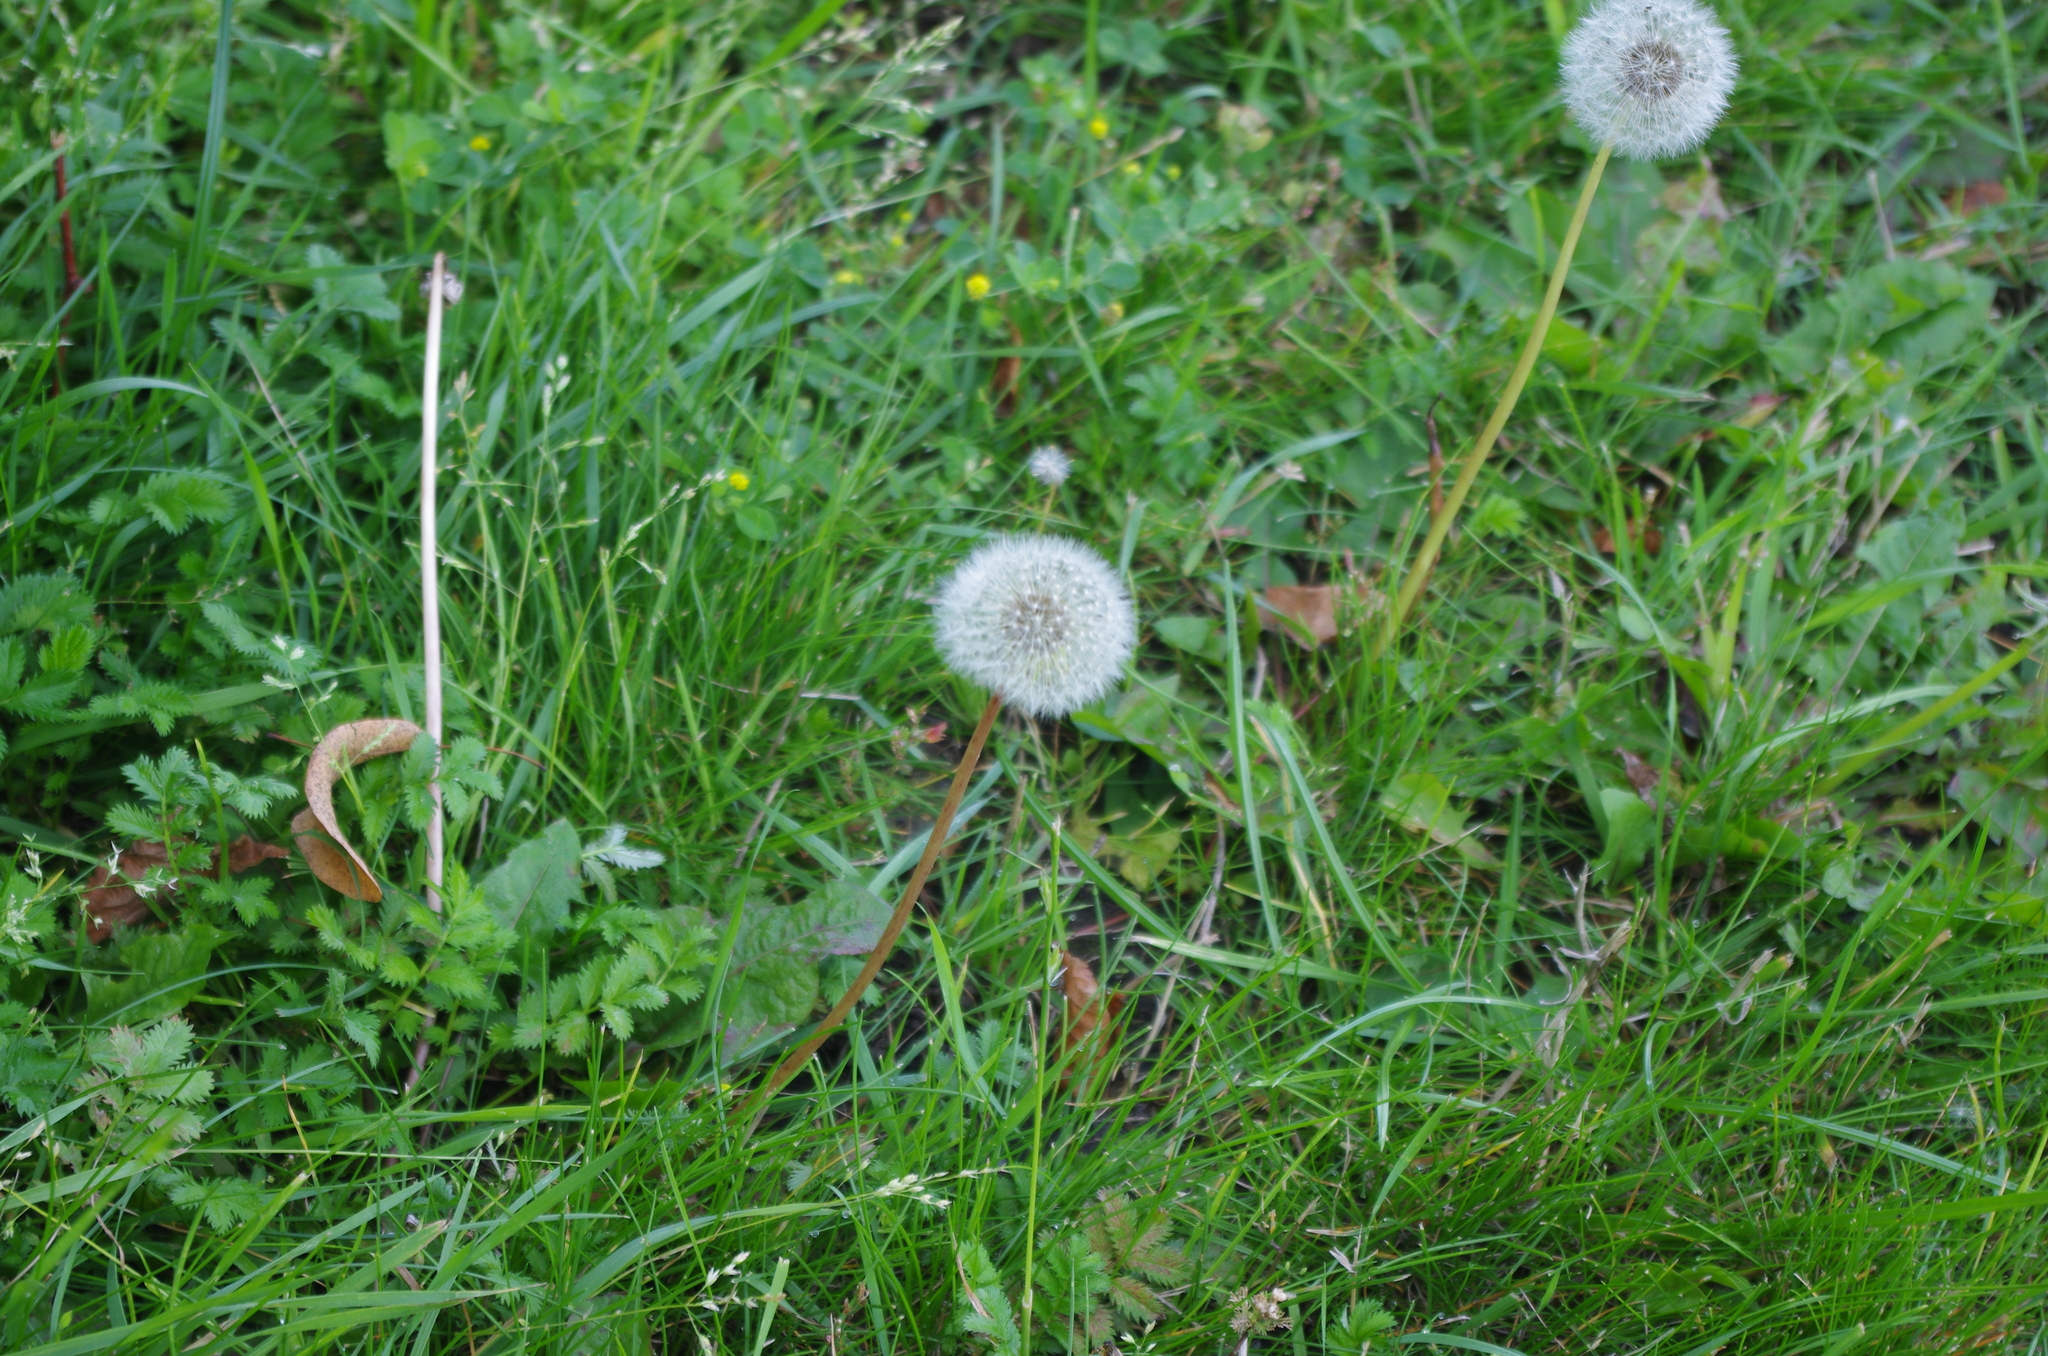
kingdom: Plantae
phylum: Tracheophyta
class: Magnoliopsida
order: Asterales
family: Asteraceae
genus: Taraxacum
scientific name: Taraxacum officinale
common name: Common dandelion
